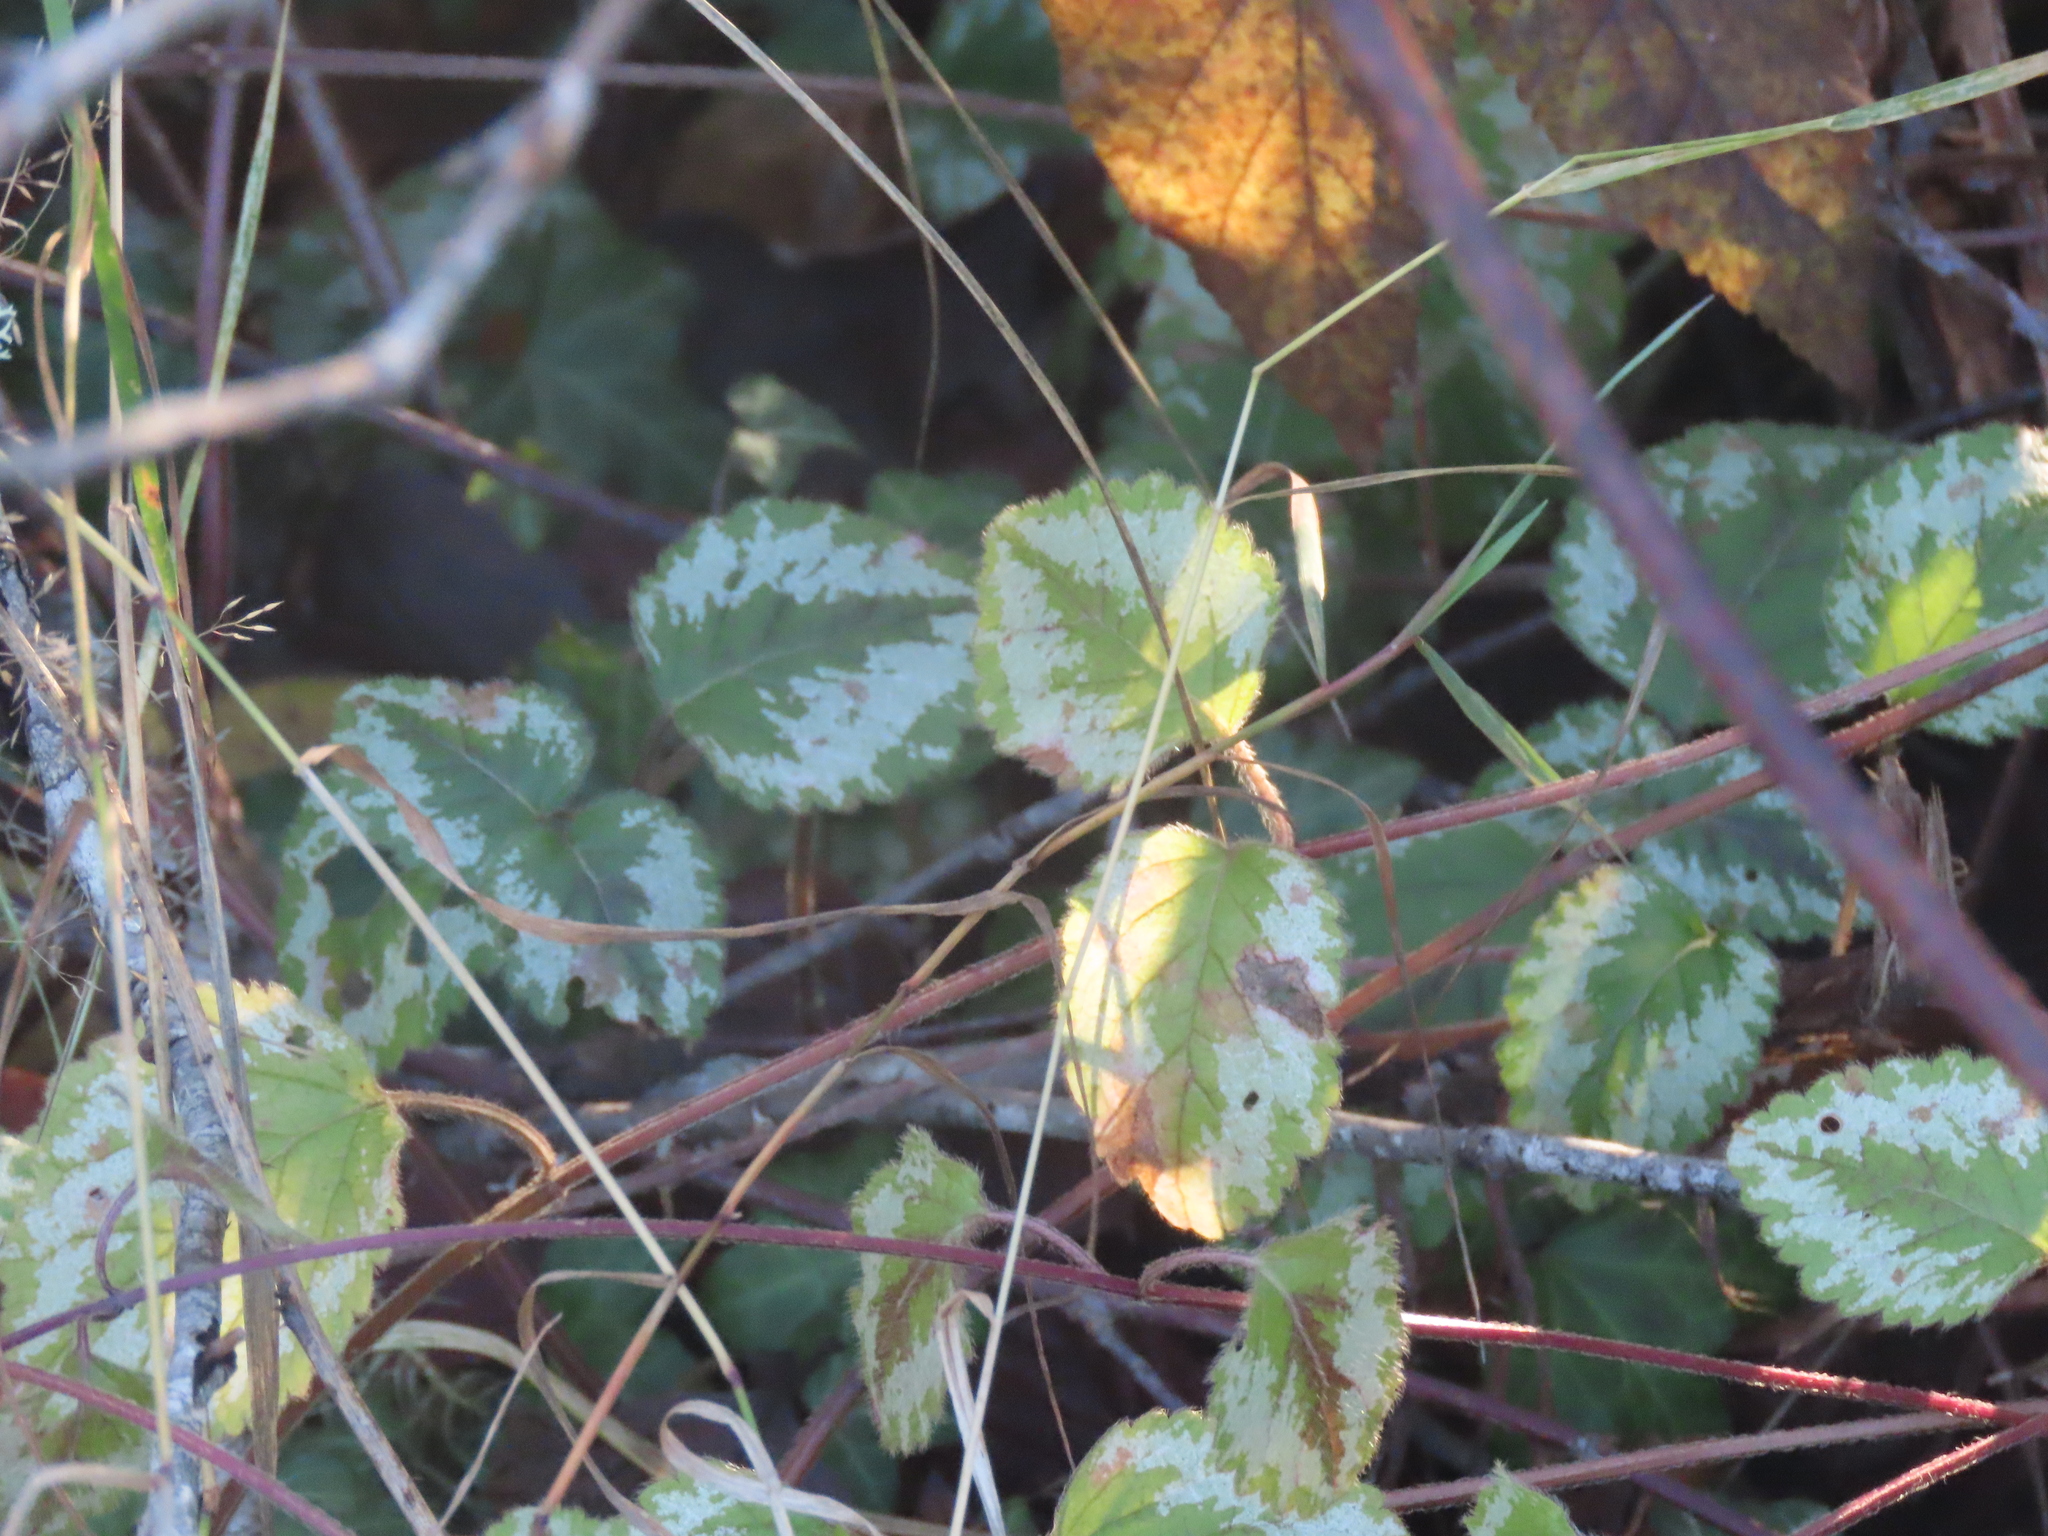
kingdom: Plantae
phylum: Tracheophyta
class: Magnoliopsida
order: Lamiales
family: Lamiaceae
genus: Lamium
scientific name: Lamium galeobdolon
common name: Yellow archangel
